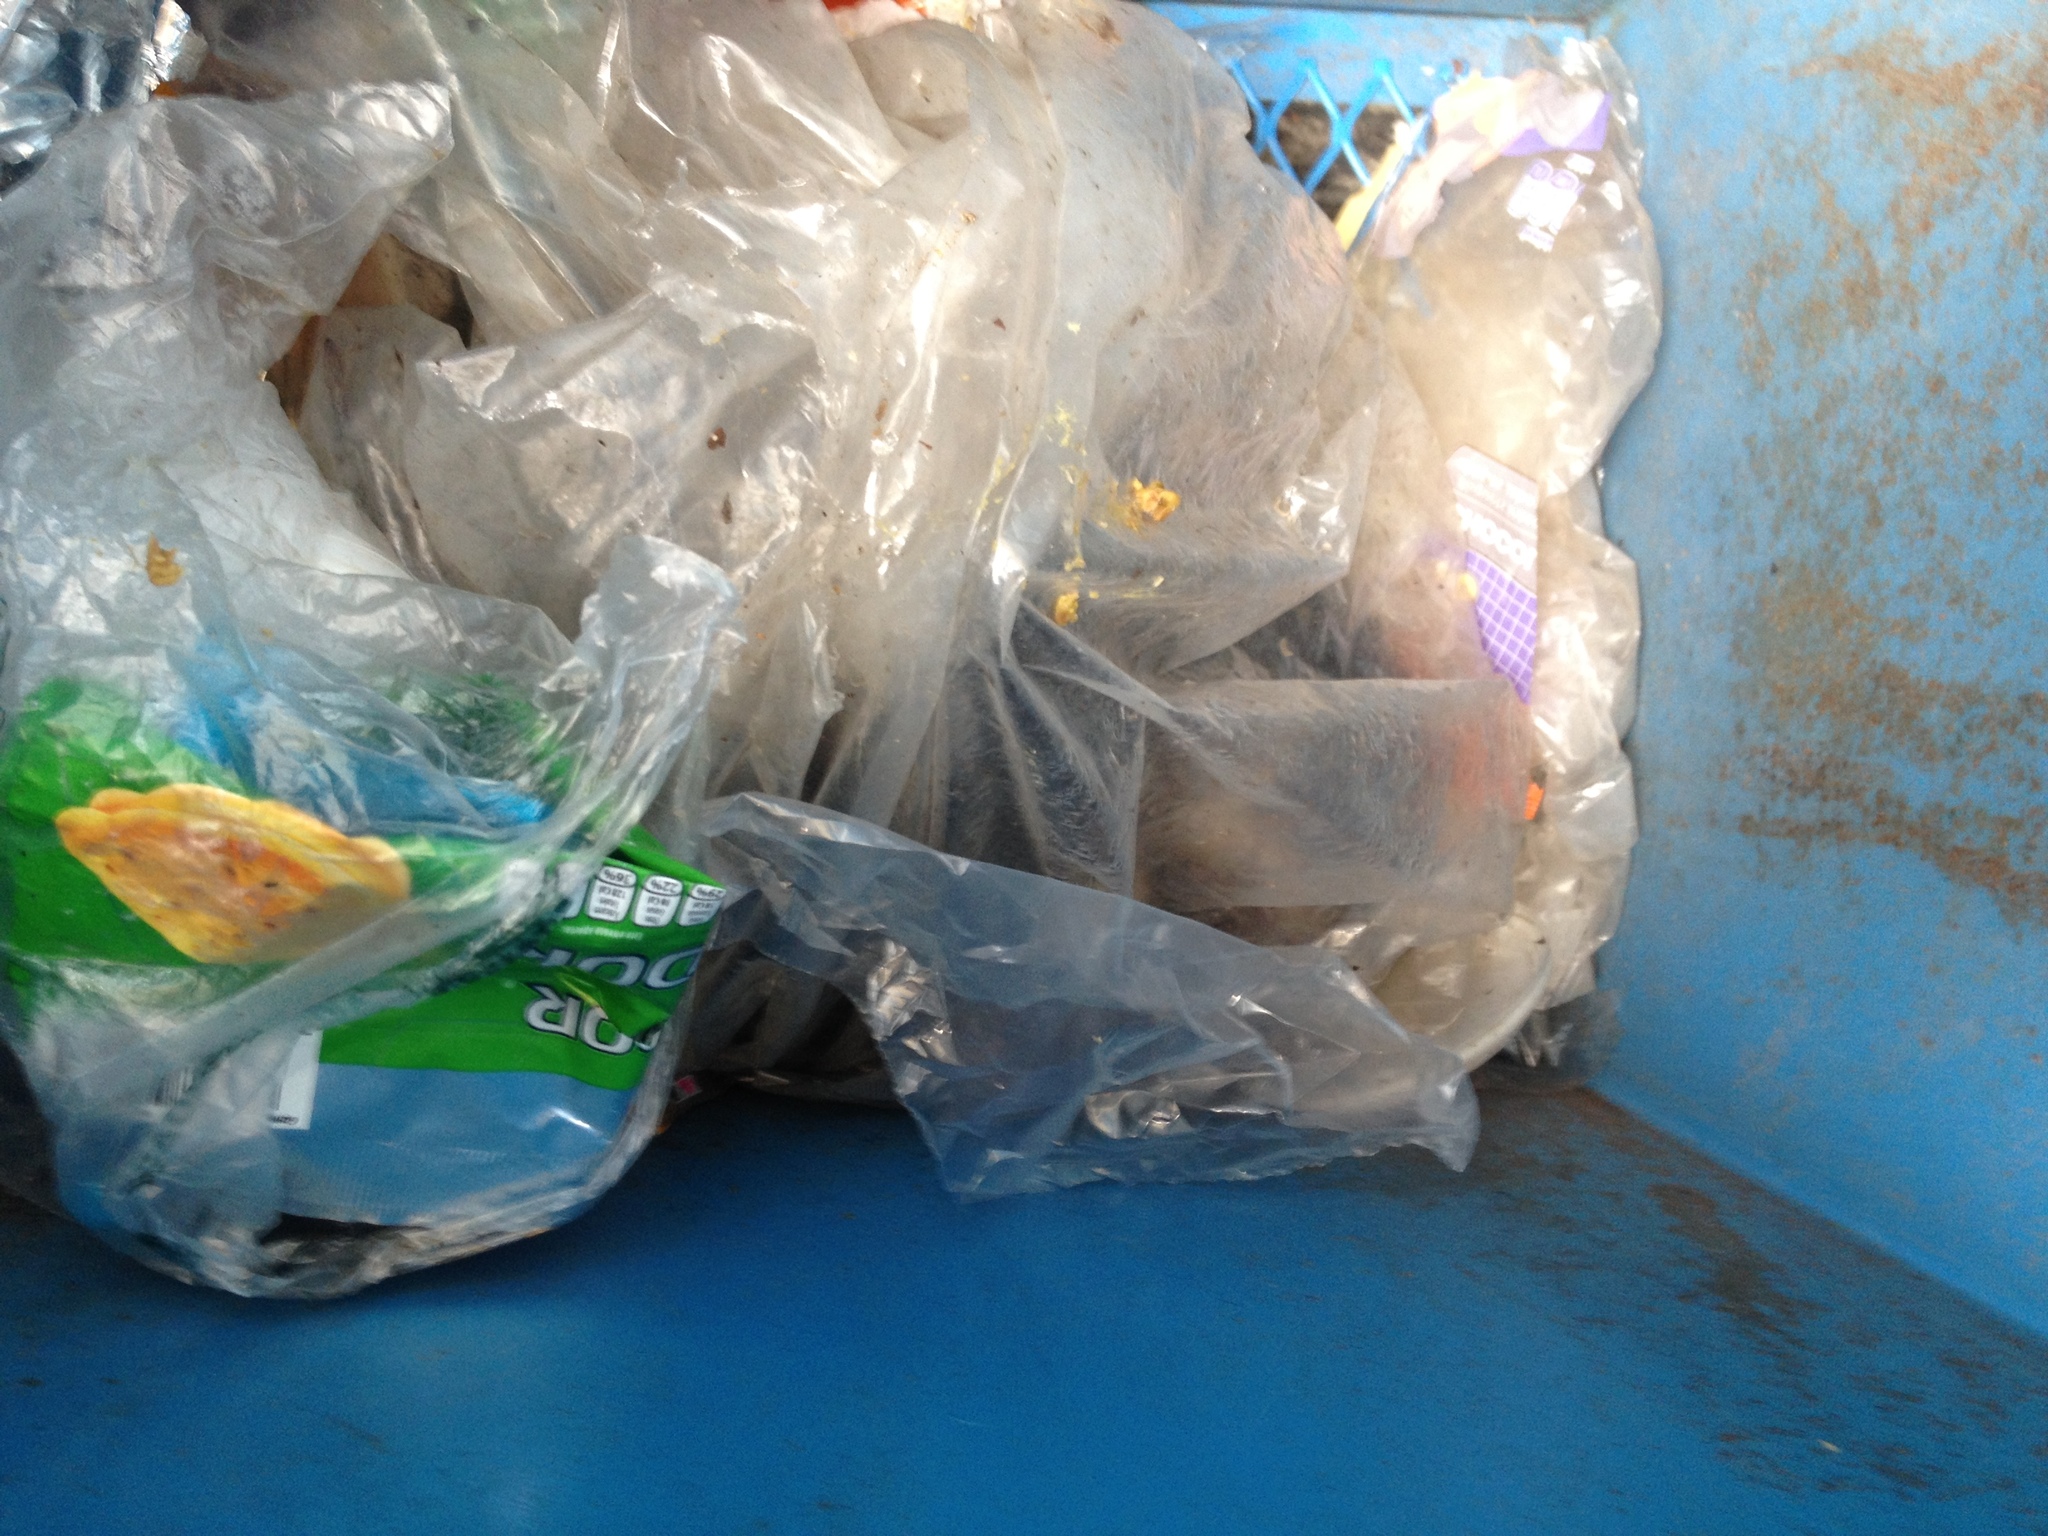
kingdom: Animalia
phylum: Chordata
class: Mammalia
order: Didelphimorphia
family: Didelphidae
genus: Didelphis
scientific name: Didelphis virginiana
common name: Virginia opossum
